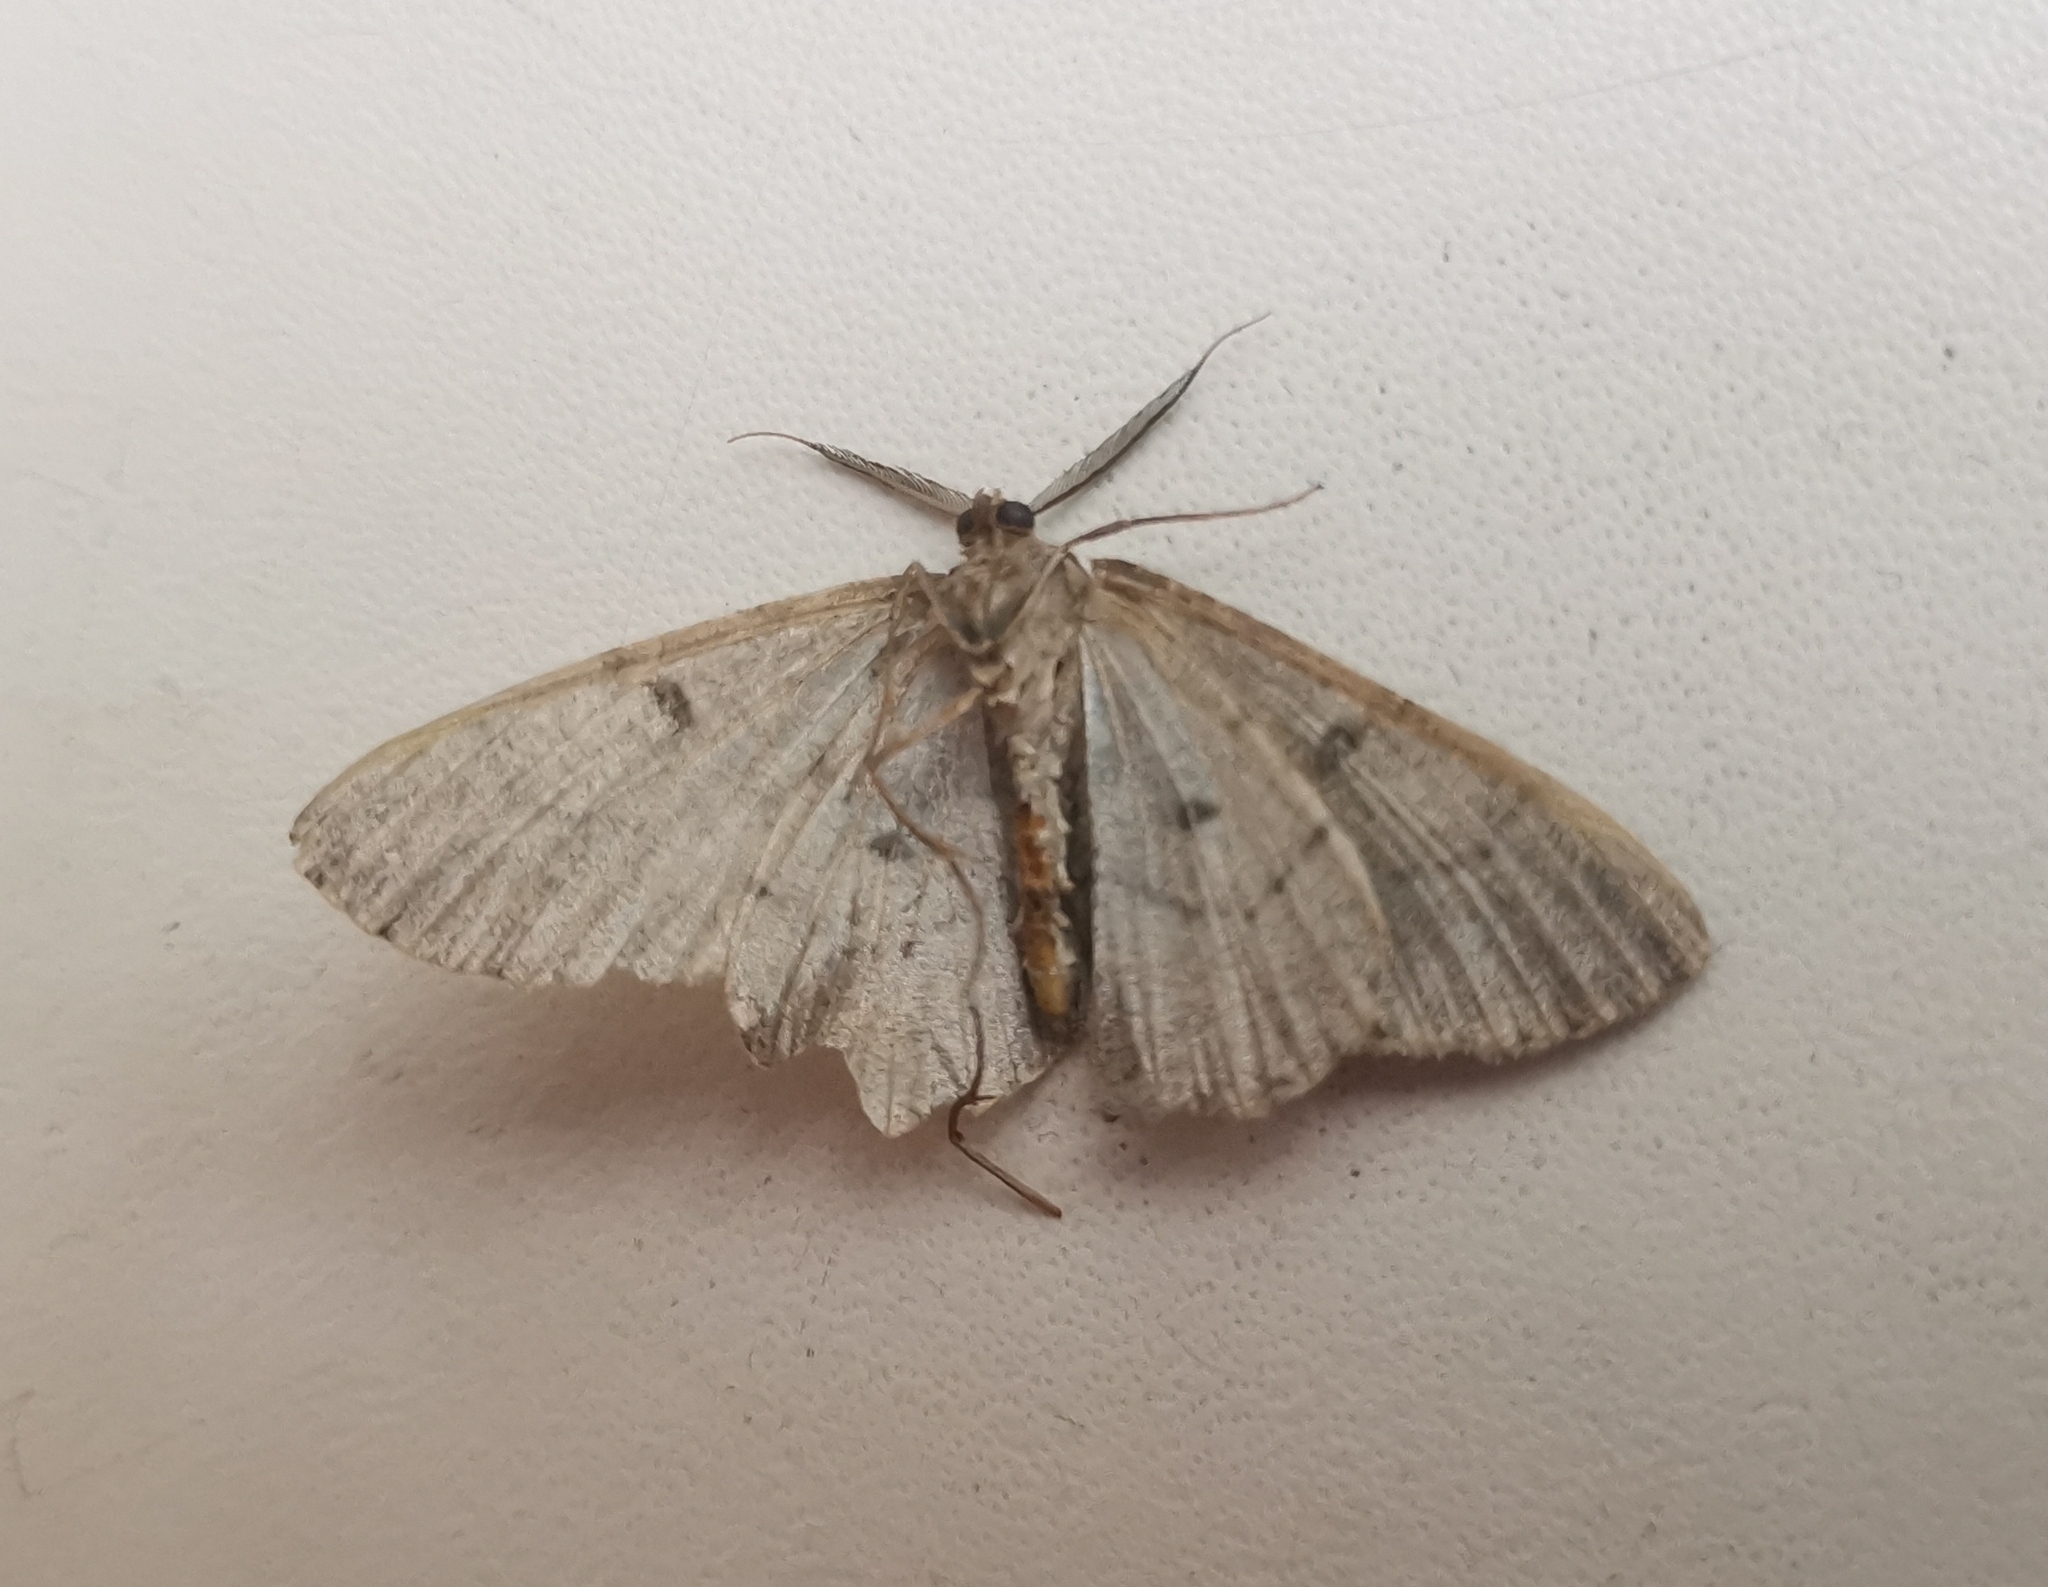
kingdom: Animalia
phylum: Arthropoda
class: Insecta
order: Lepidoptera
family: Geometridae
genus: Hypomecis
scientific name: Hypomecis punctinalis
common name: Pale oak beauty
